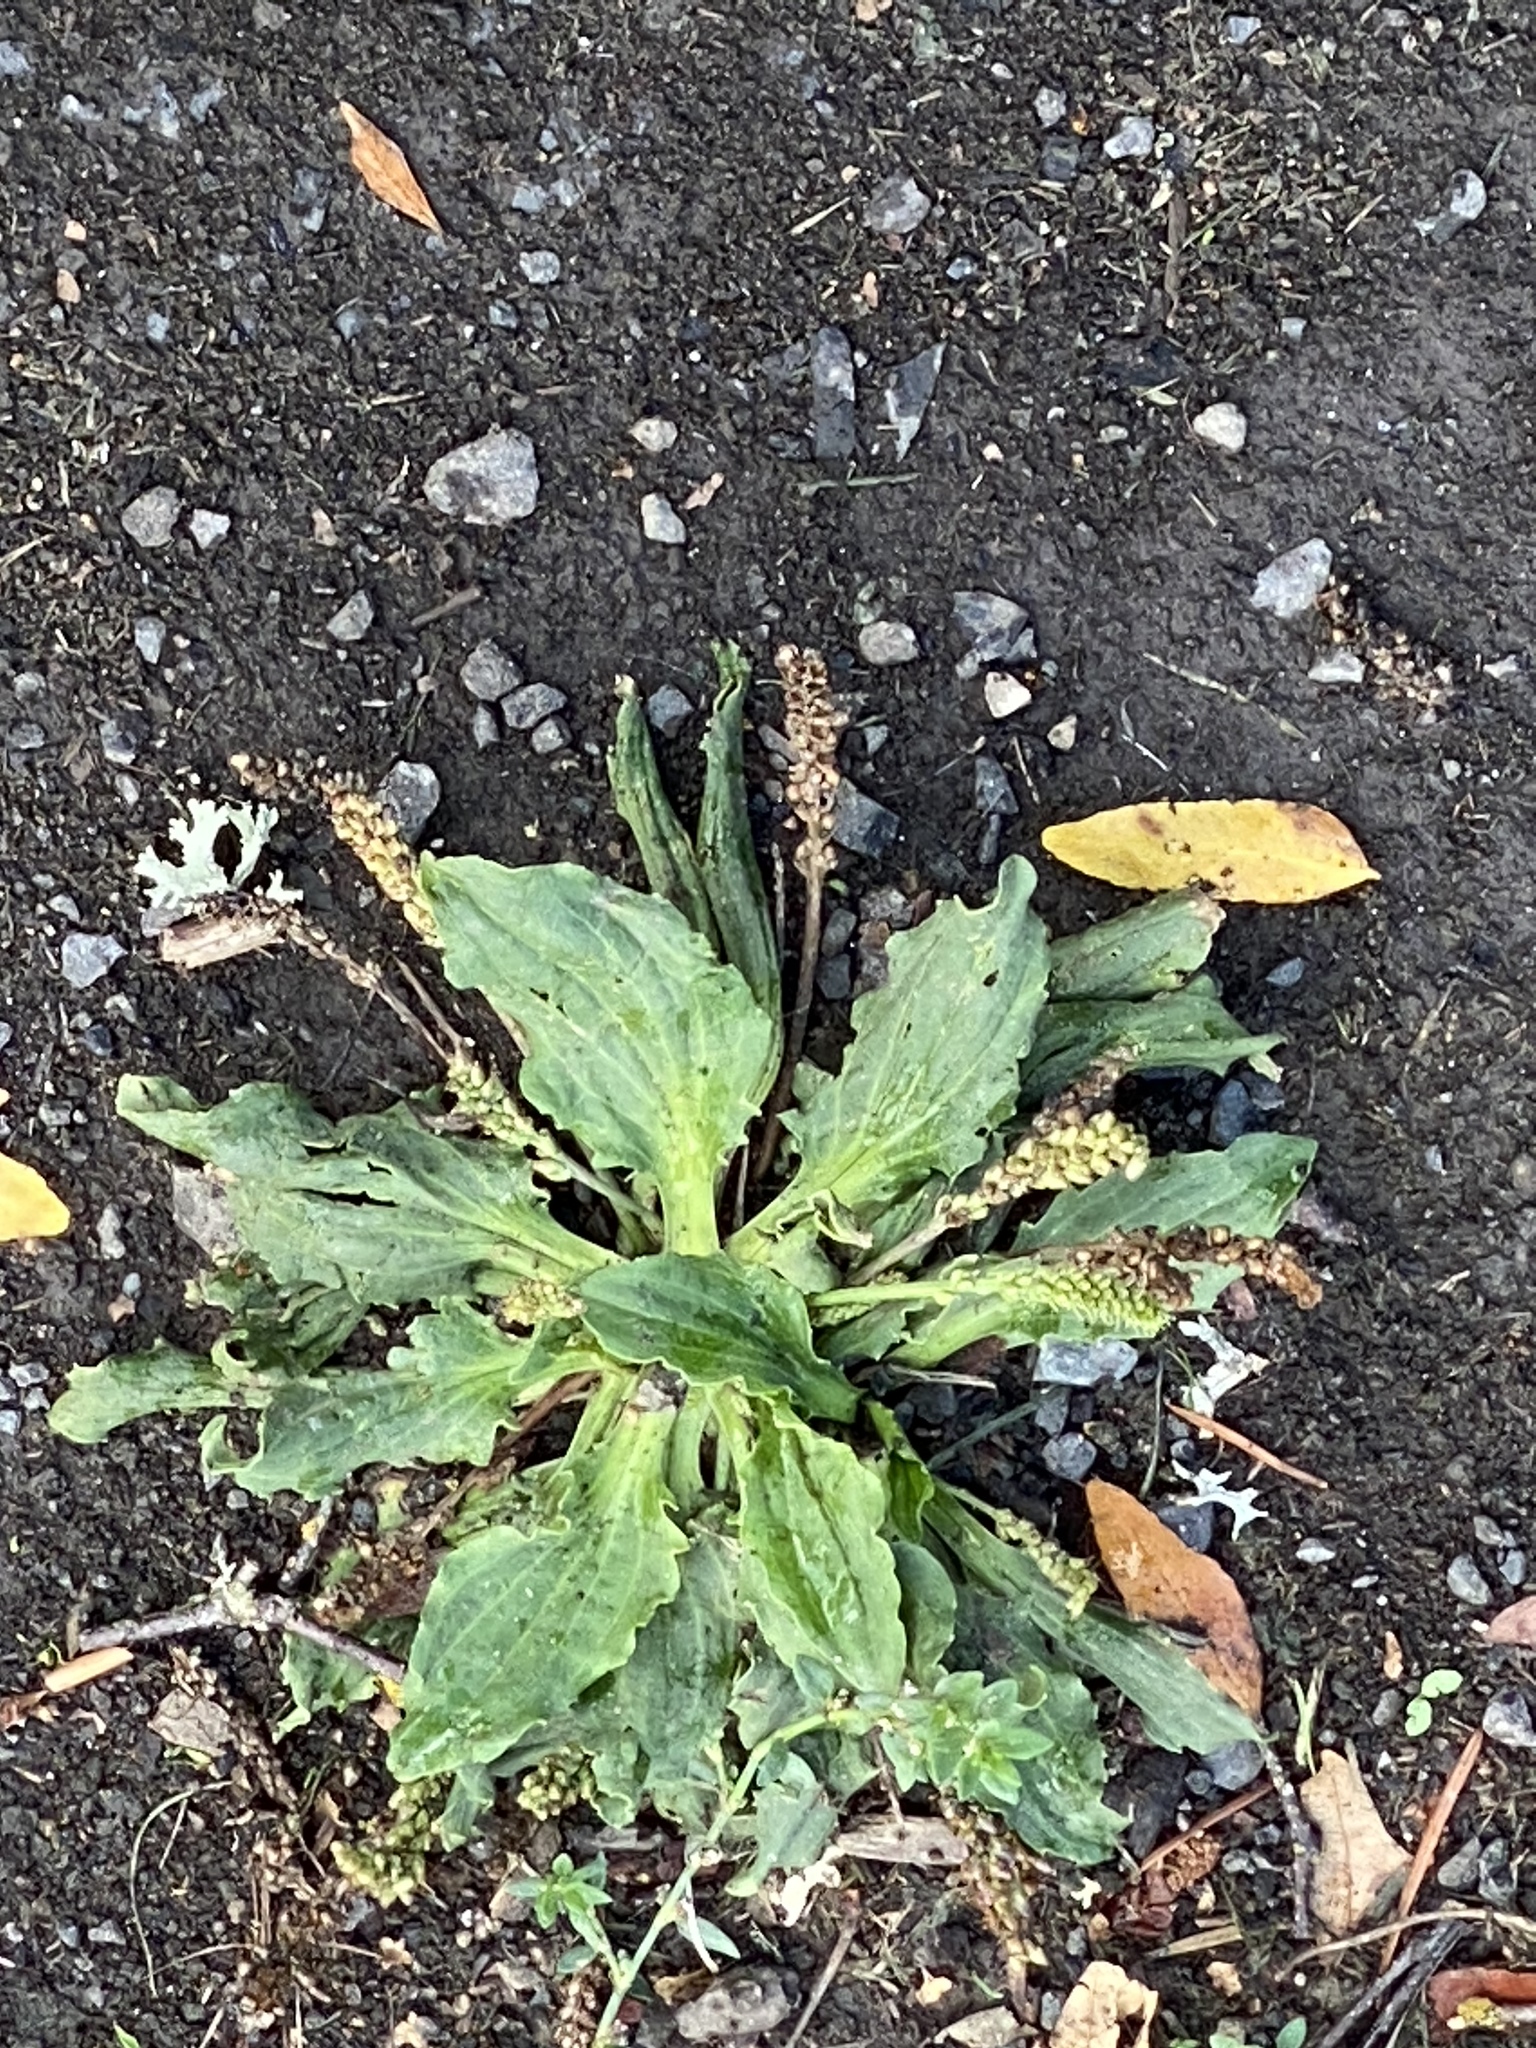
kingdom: Plantae
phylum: Tracheophyta
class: Magnoliopsida
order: Lamiales
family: Plantaginaceae
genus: Plantago
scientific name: Plantago major
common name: Common plantain
